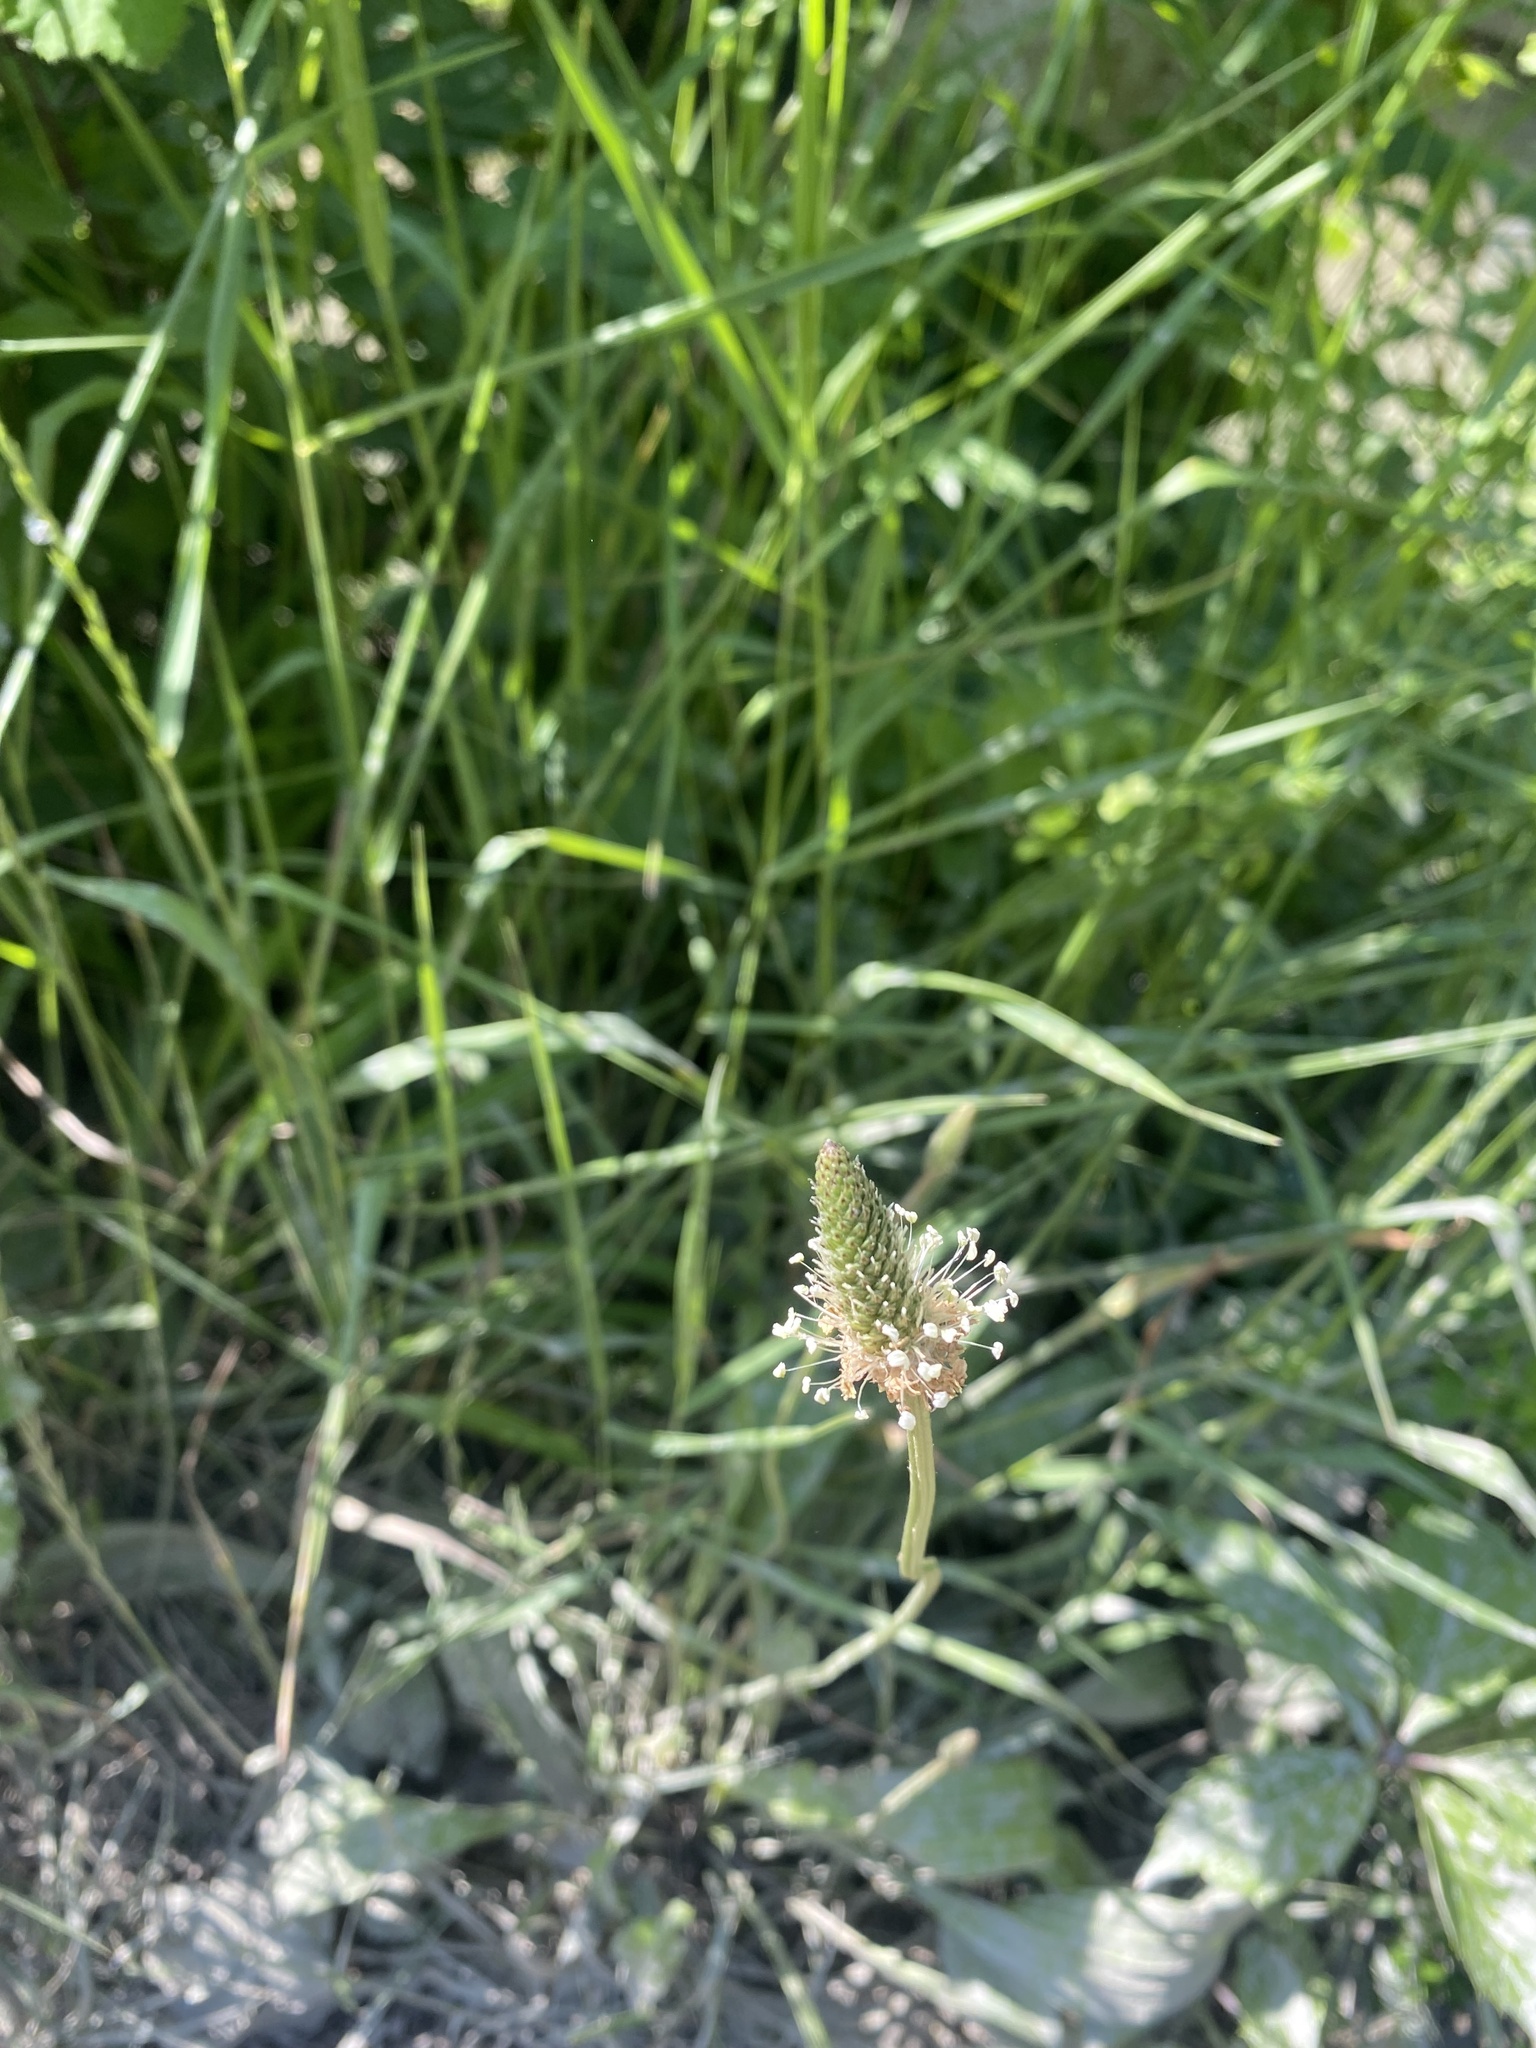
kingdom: Plantae
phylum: Tracheophyta
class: Magnoliopsida
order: Lamiales
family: Plantaginaceae
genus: Plantago
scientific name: Plantago lanceolata
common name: Ribwort plantain
